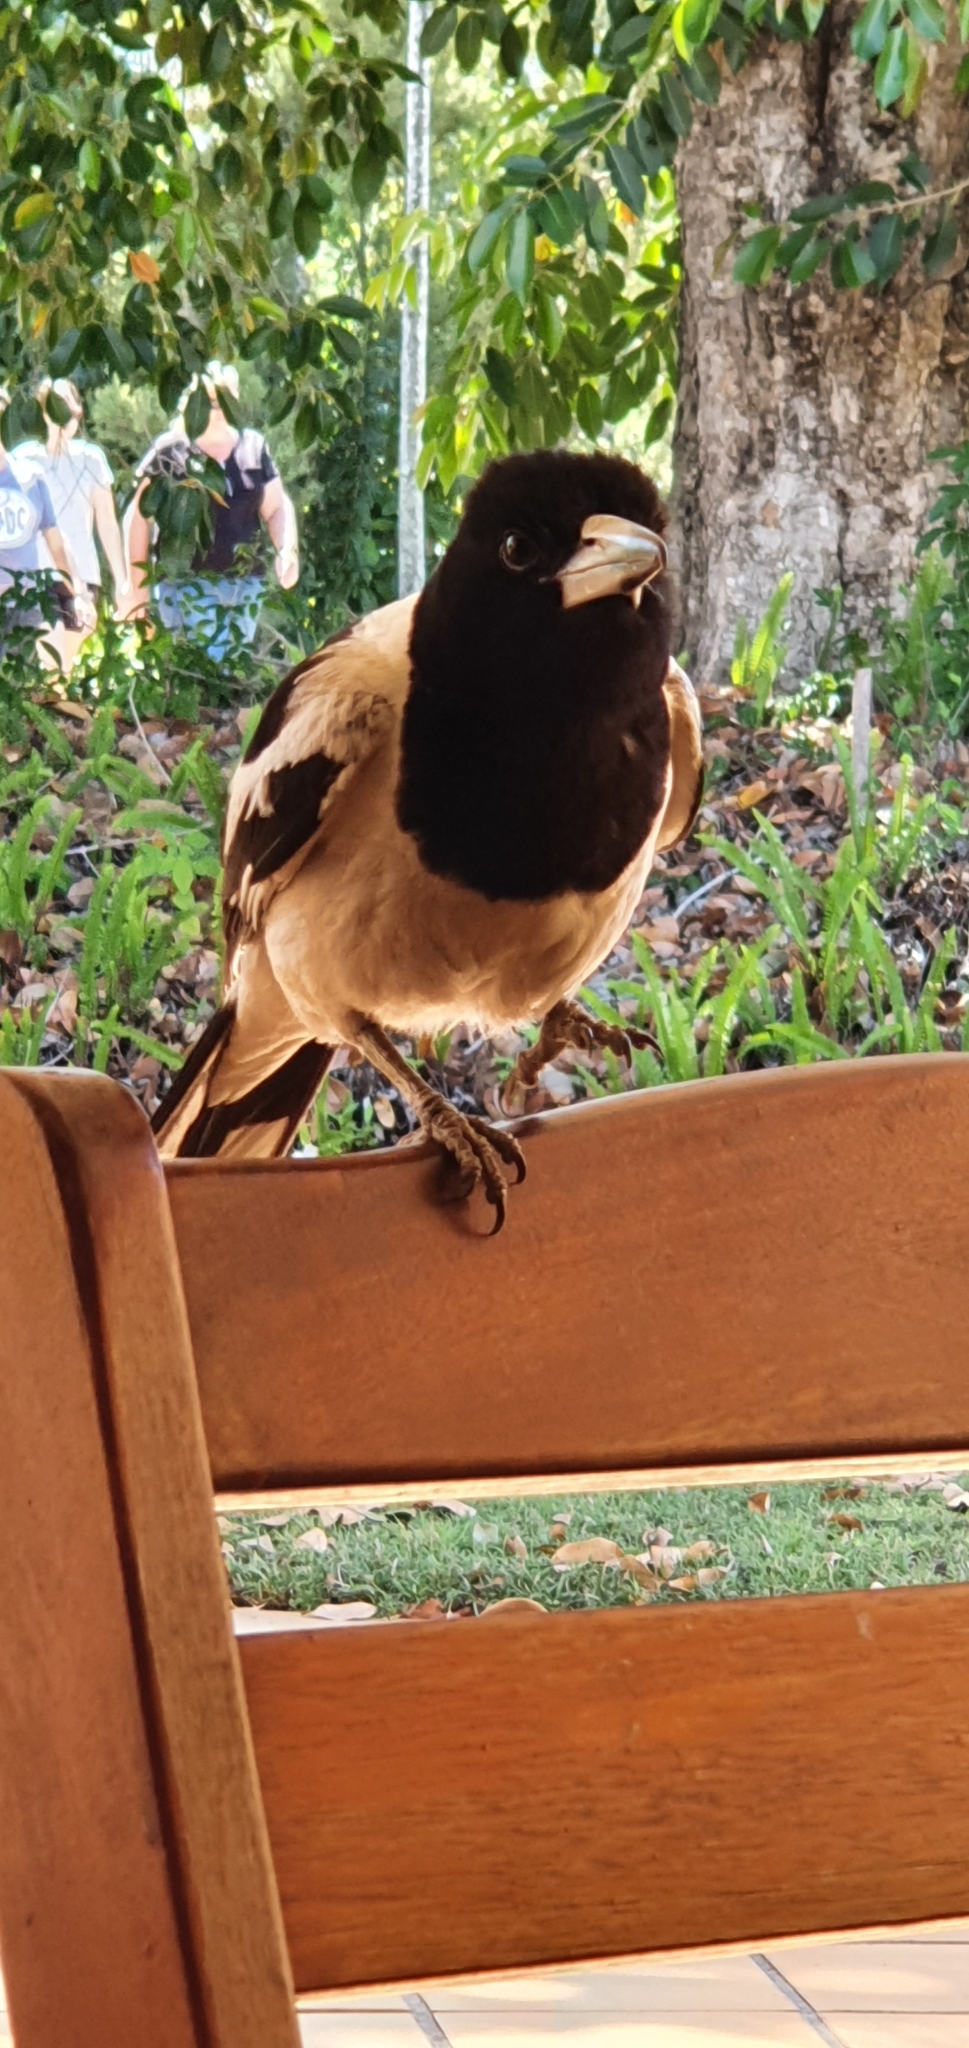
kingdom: Animalia
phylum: Chordata
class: Aves
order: Passeriformes
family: Cracticidae
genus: Cracticus
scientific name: Cracticus nigrogularis
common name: Pied butcherbird
